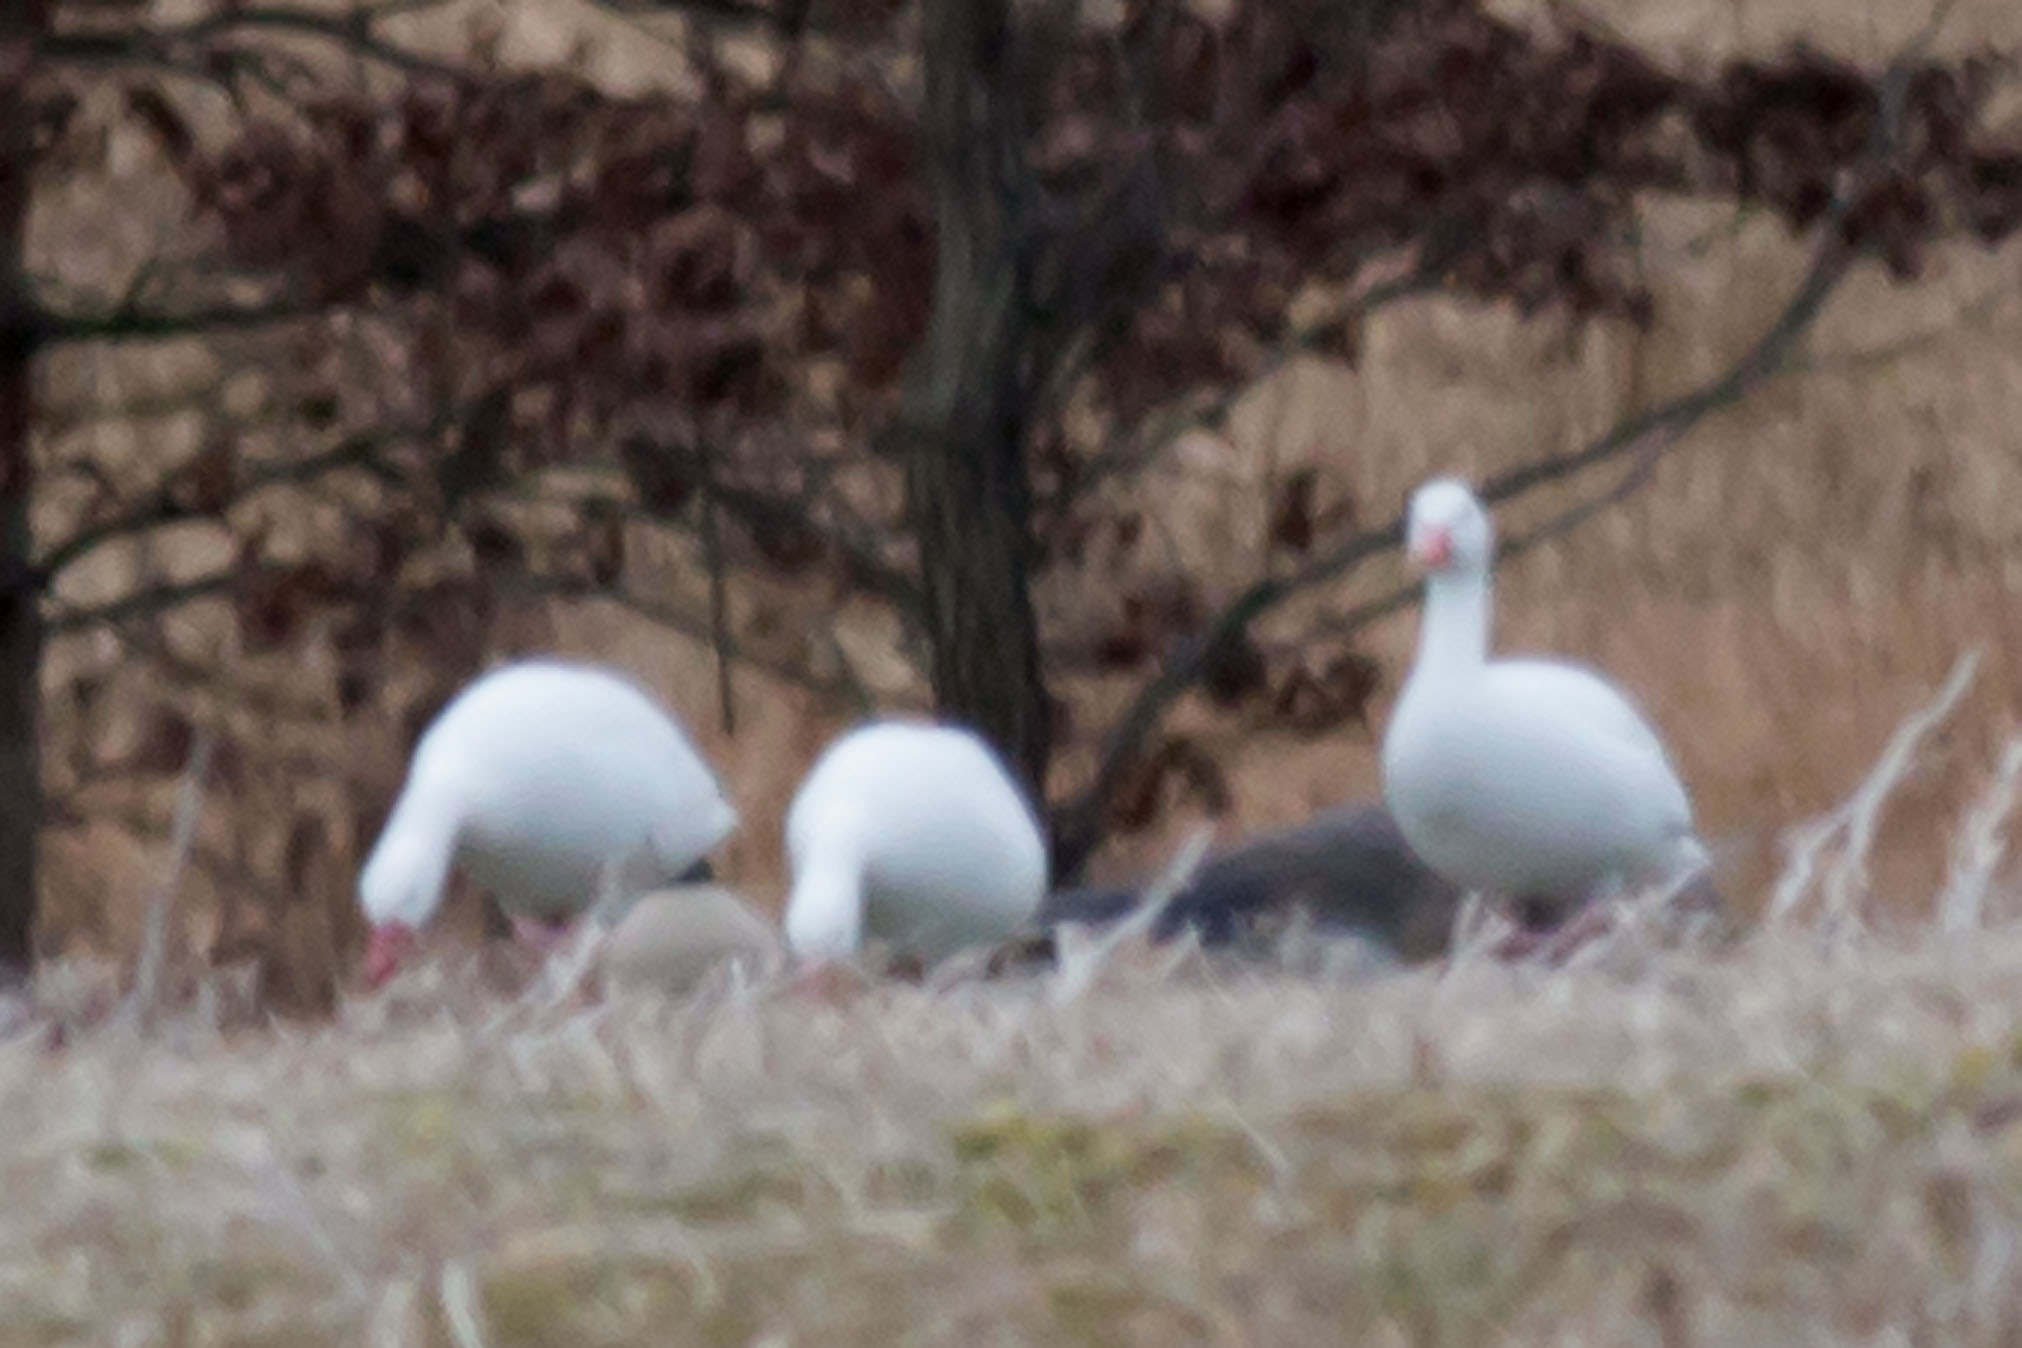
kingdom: Animalia
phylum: Chordata
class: Aves
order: Anseriformes
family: Anatidae
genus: Anser
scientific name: Anser caerulescens
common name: Snow goose
